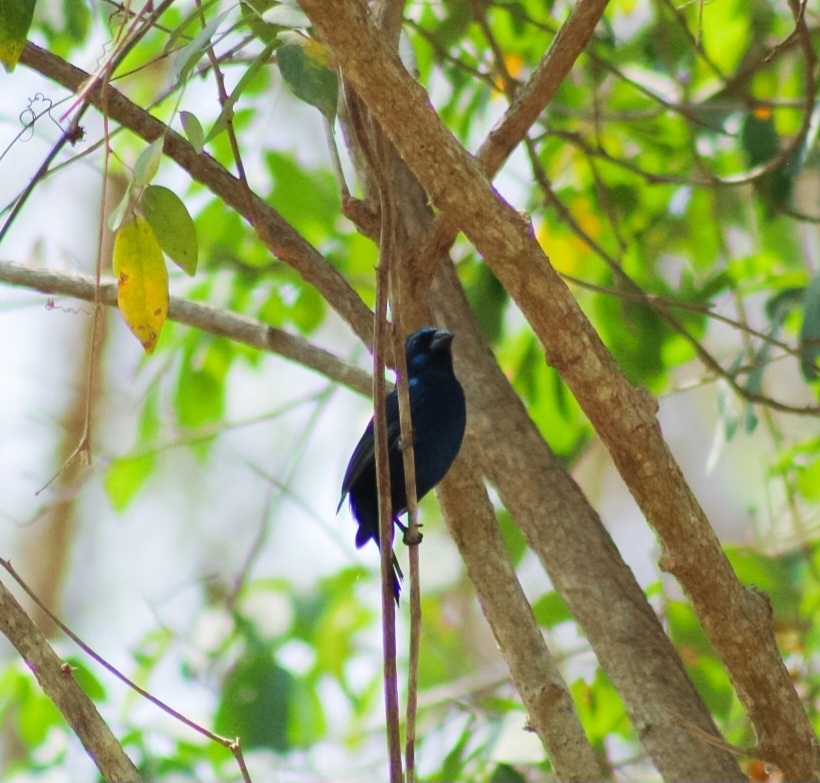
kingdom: Animalia
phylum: Chordata
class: Aves
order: Passeriformes
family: Cardinalidae
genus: Cyanocompsa
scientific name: Cyanocompsa parellina
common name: Blue bunting
